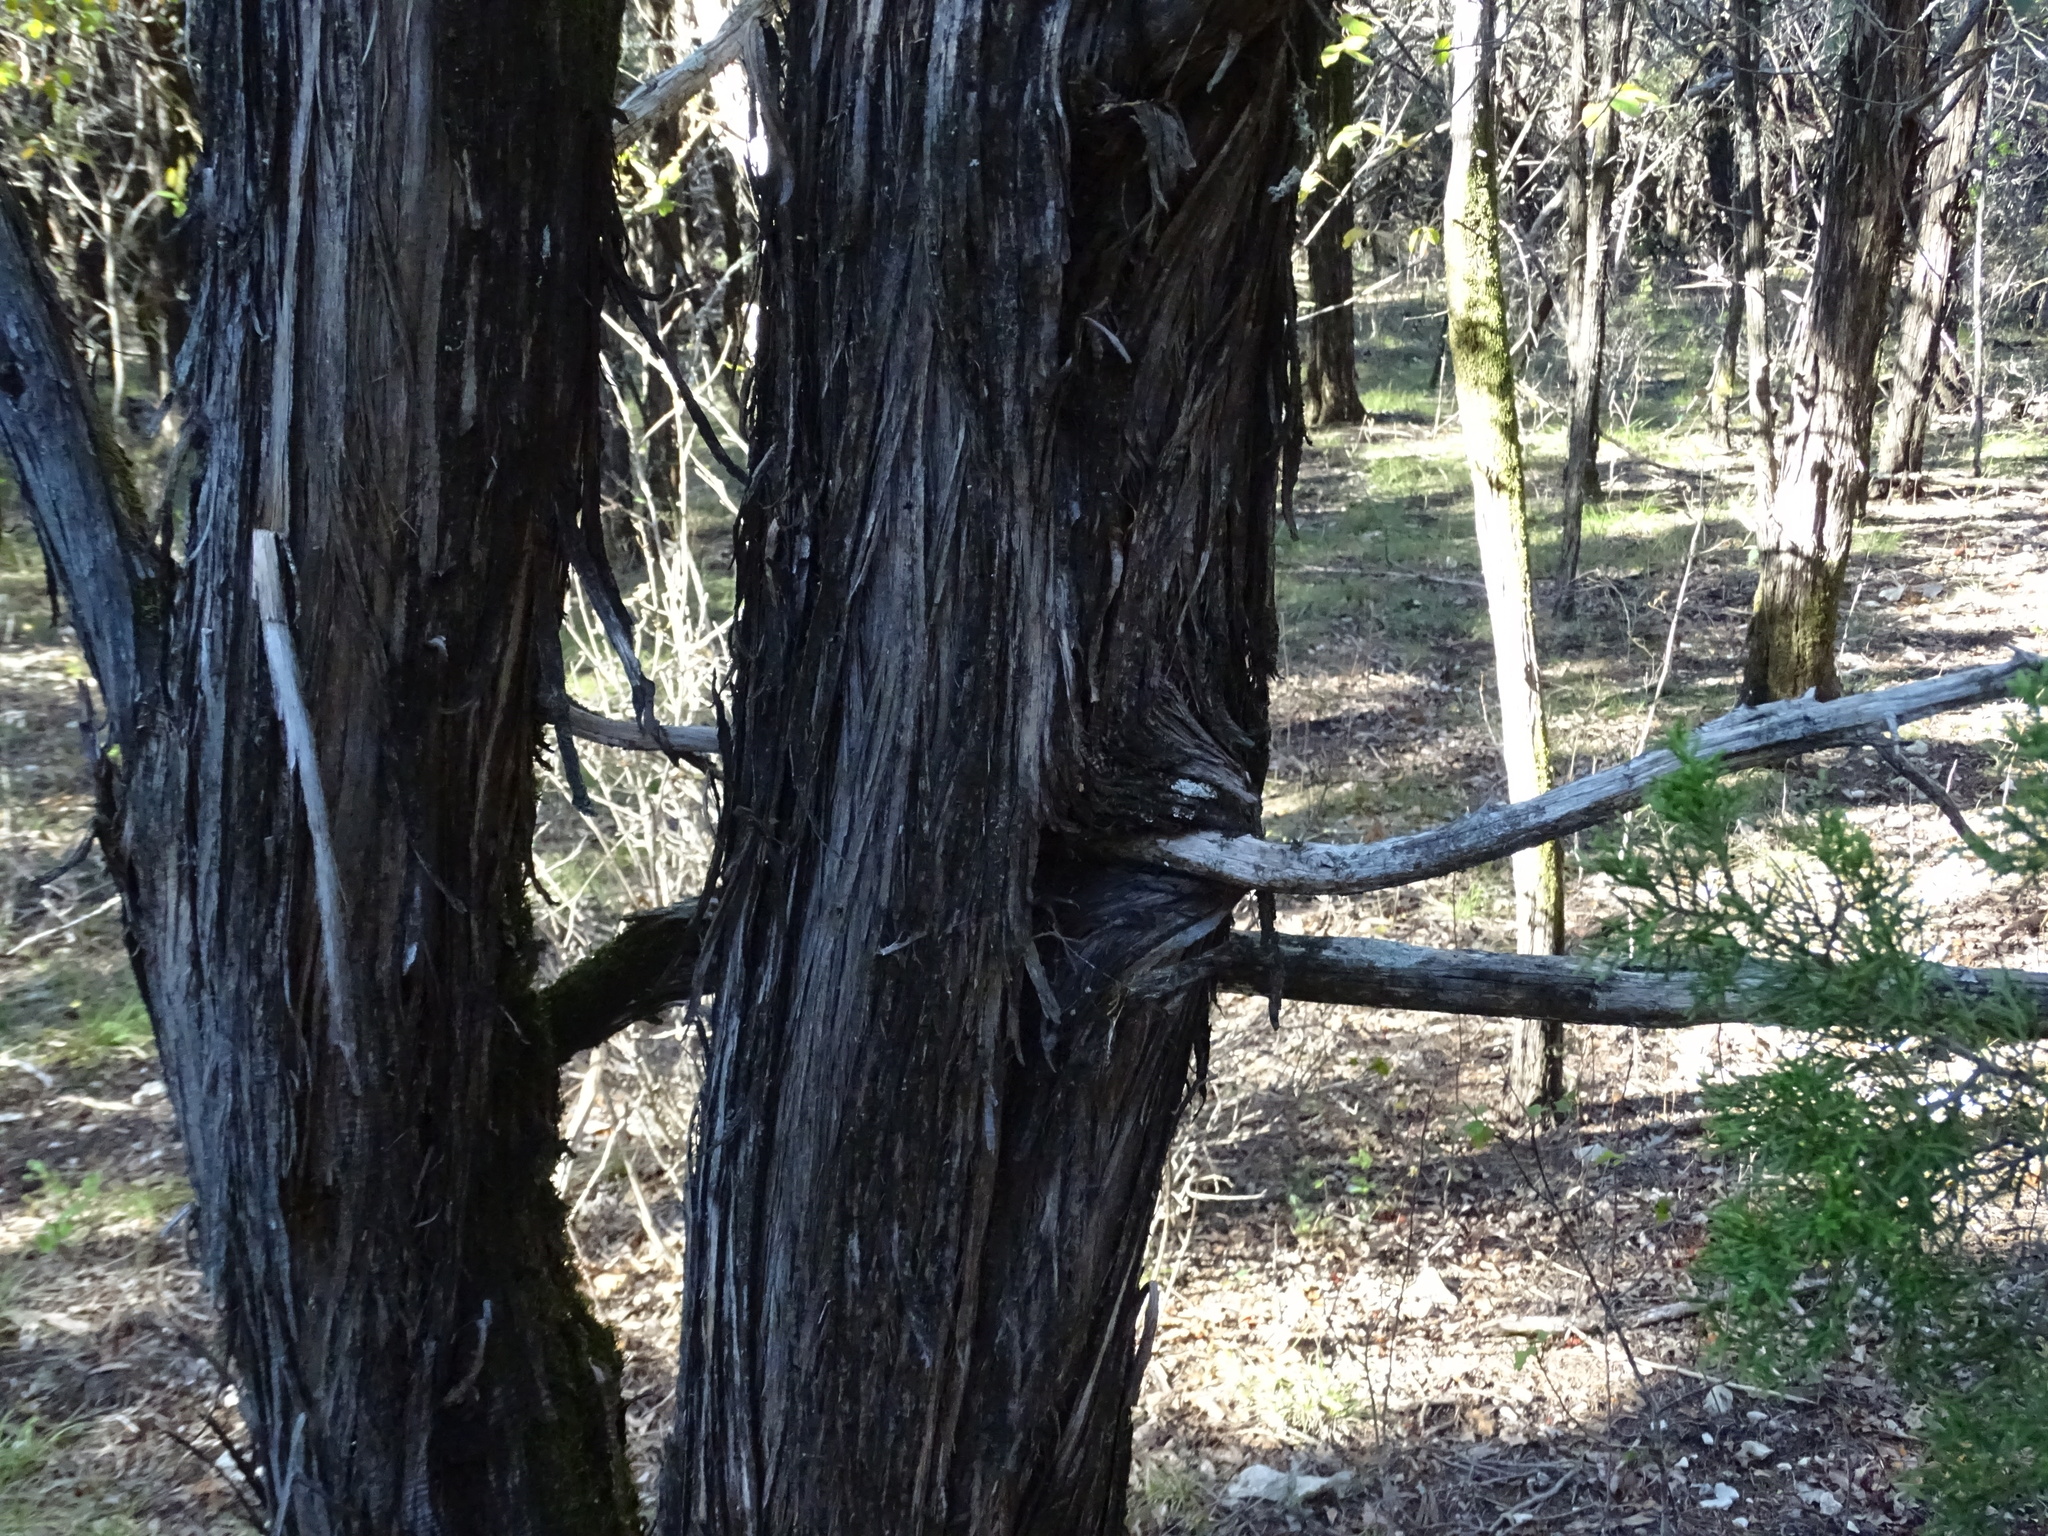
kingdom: Plantae
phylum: Tracheophyta
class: Pinopsida
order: Pinales
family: Cupressaceae
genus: Juniperus
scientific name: Juniperus ashei
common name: Mexican juniper
